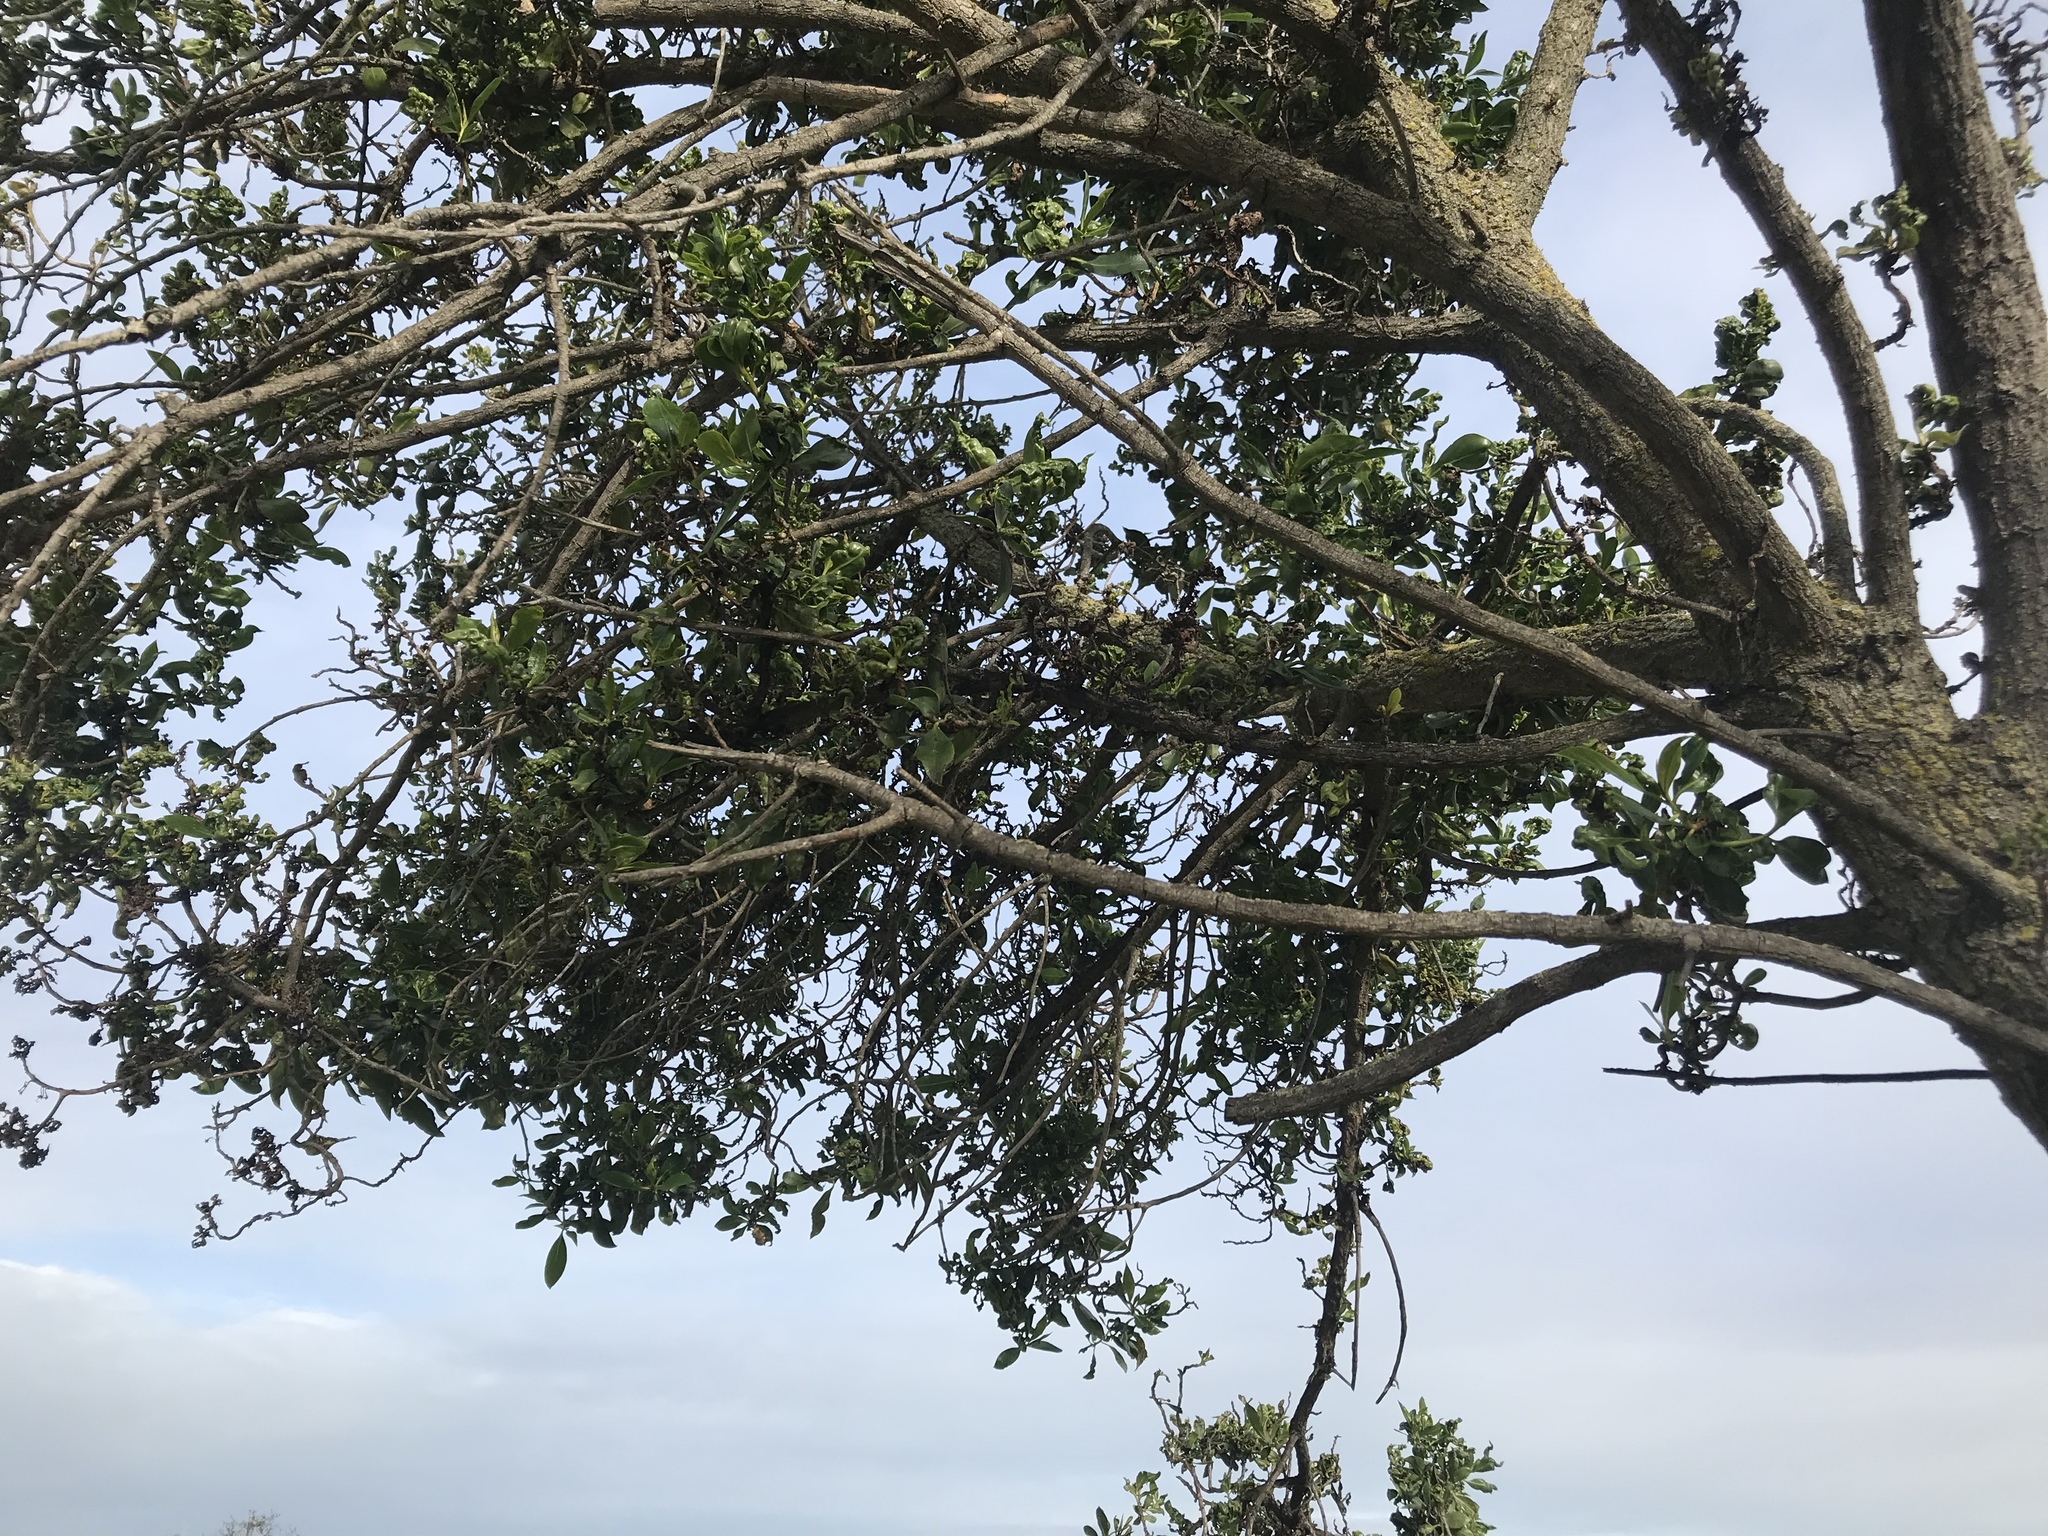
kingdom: Animalia
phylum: Arthropoda
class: Insecta
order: Thysanoptera
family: Phlaeothripidae
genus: Klambothrips
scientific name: Klambothrips myopori
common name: Myoporum thrips
